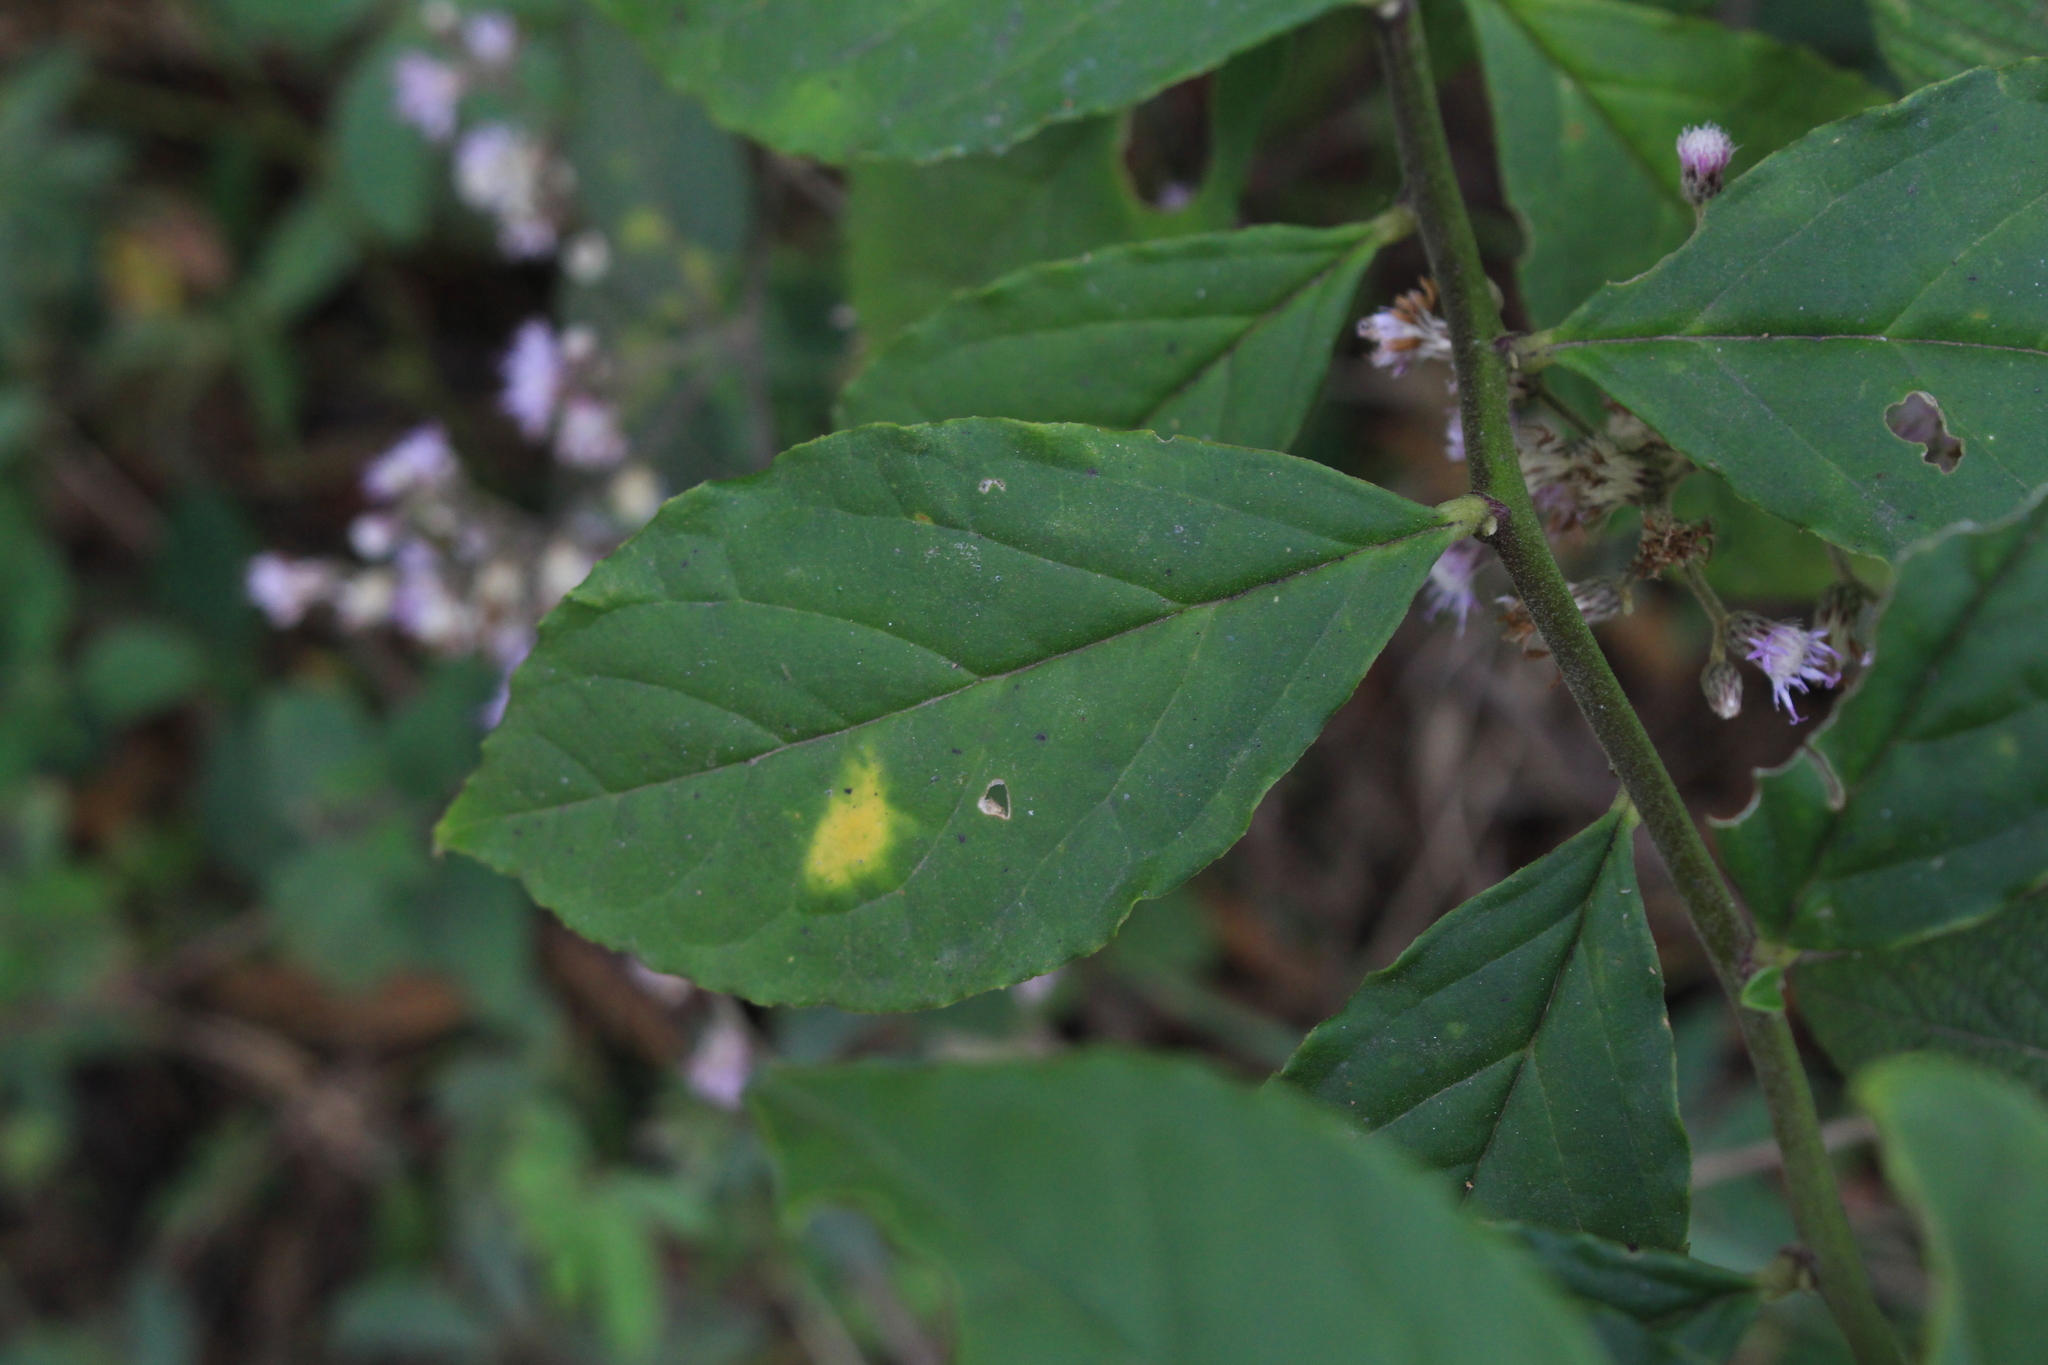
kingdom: Plantae
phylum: Tracheophyta
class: Magnoliopsida
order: Fabales
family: Polygalaceae
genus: Monnina
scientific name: Monnina sylvicola
